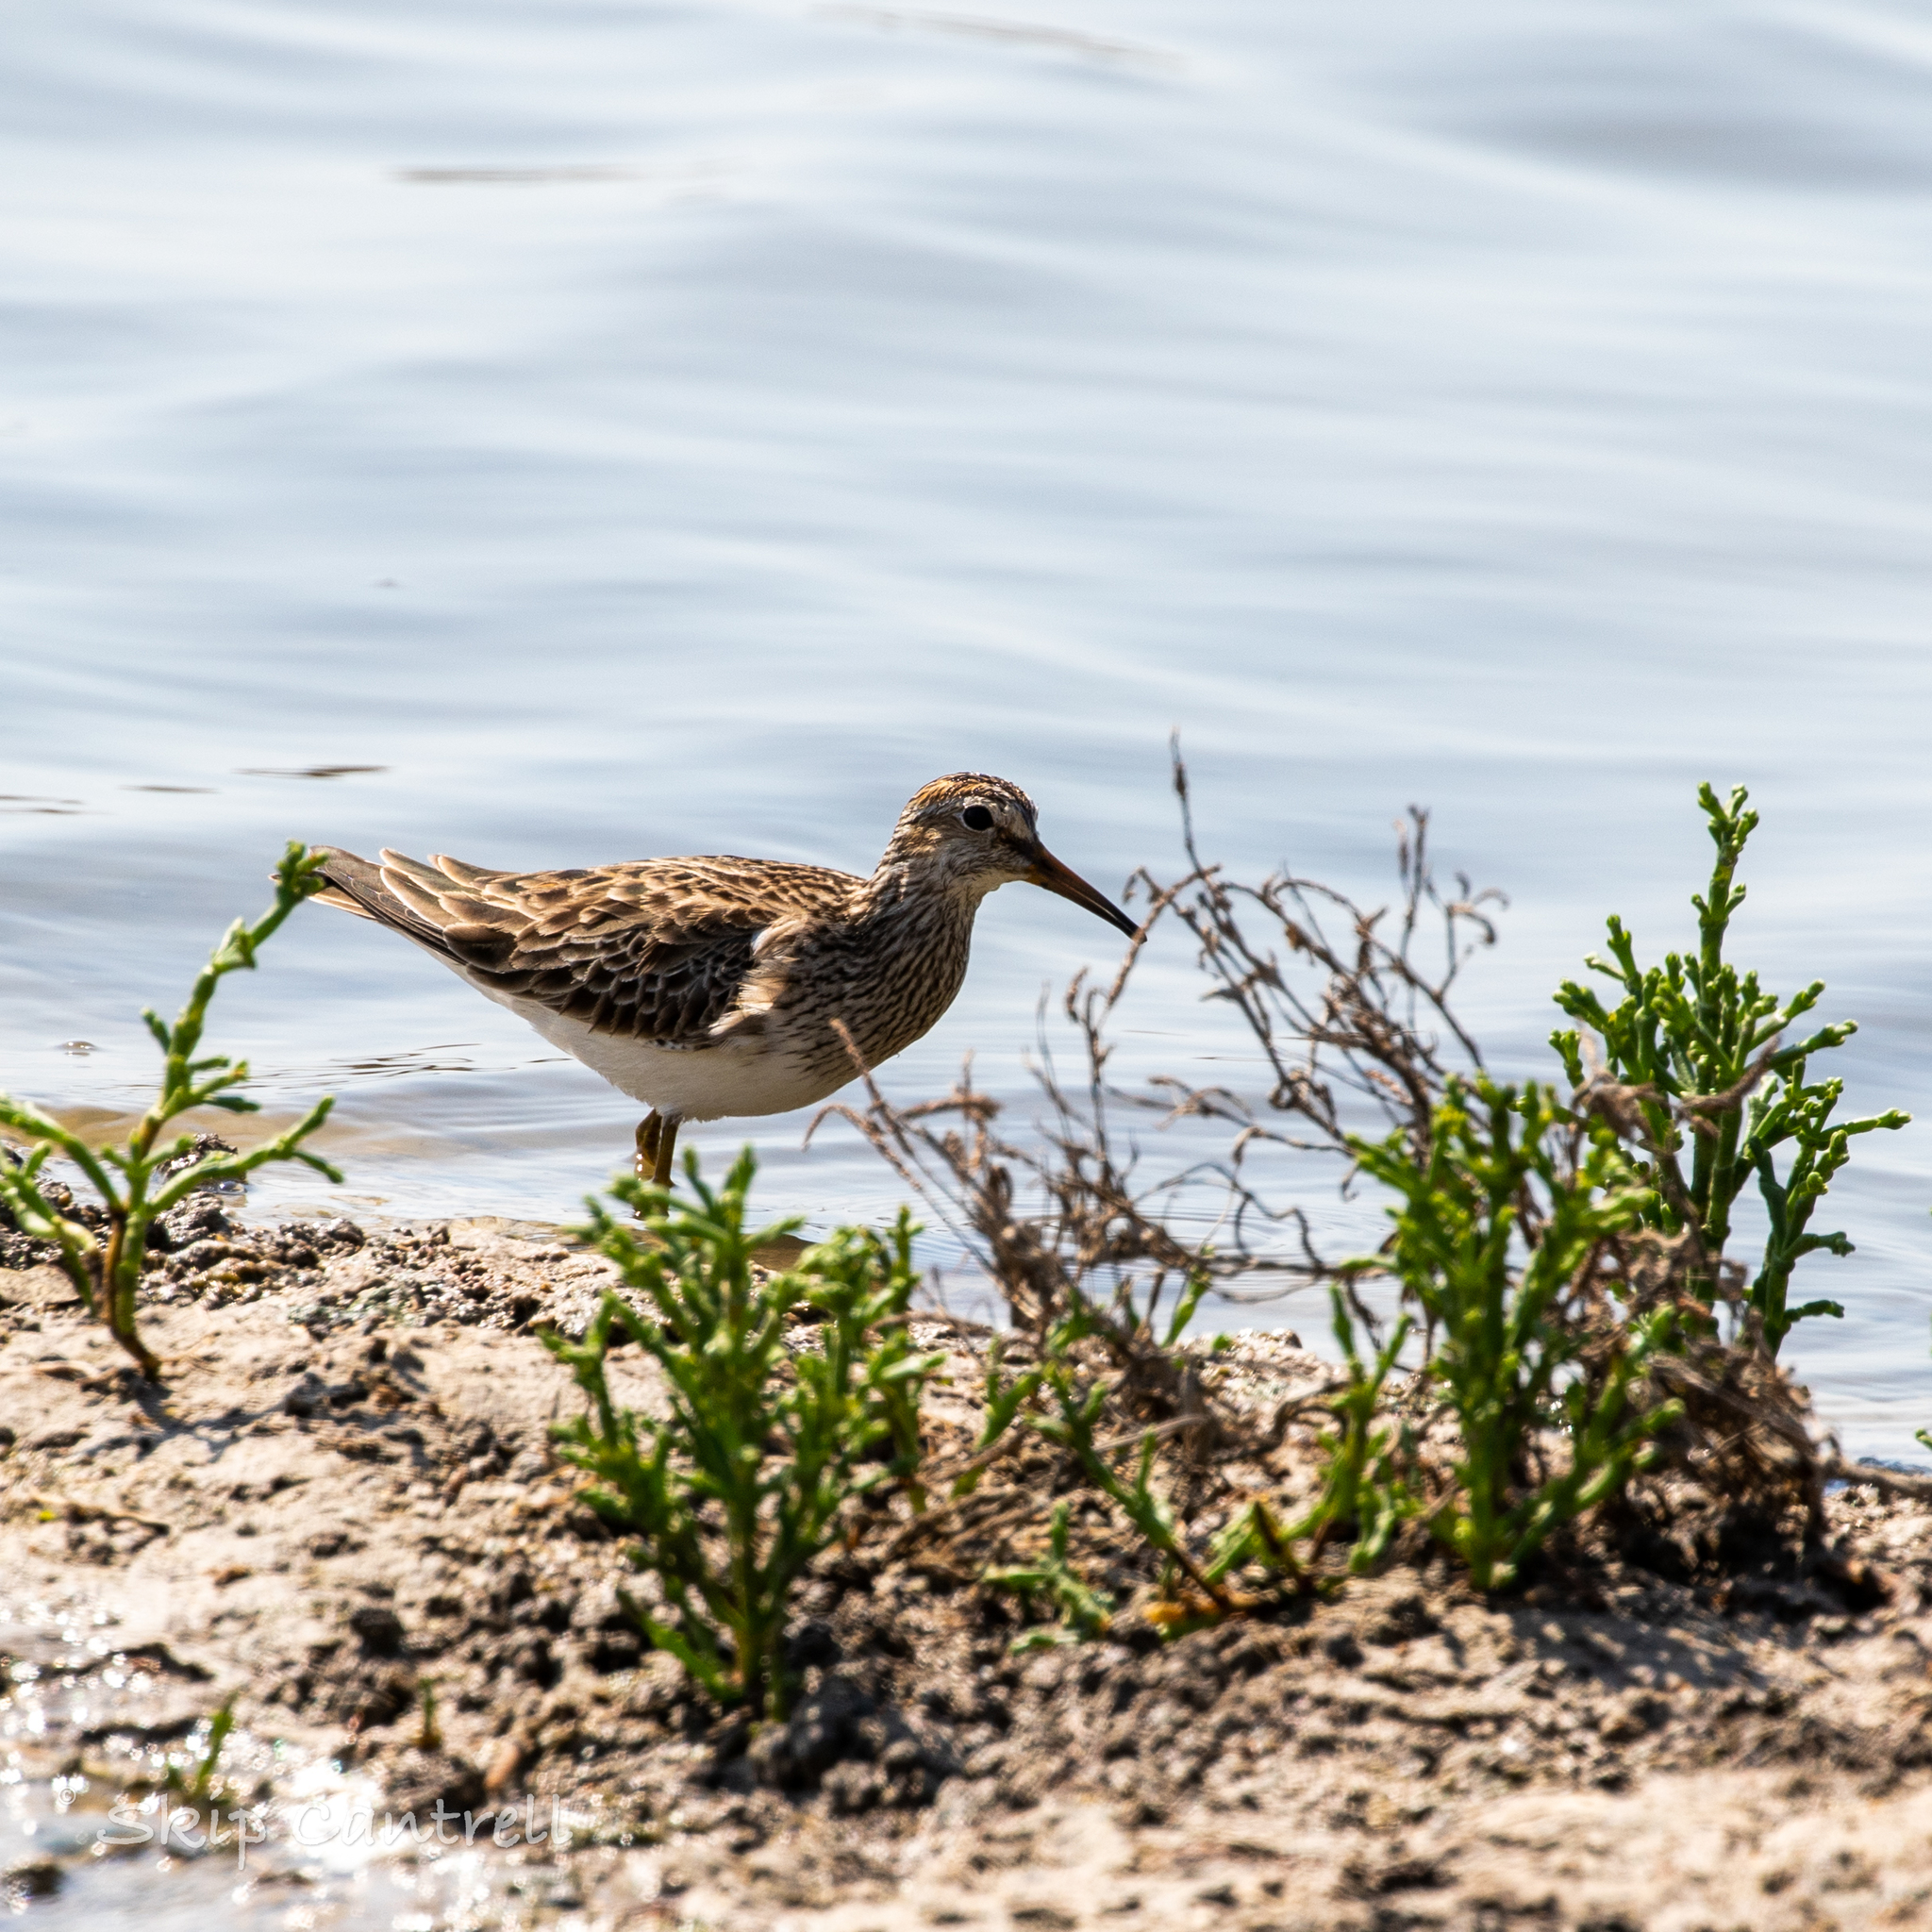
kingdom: Animalia
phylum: Chordata
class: Aves
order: Charadriiformes
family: Scolopacidae
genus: Calidris
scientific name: Calidris melanotos
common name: Pectoral sandpiper
